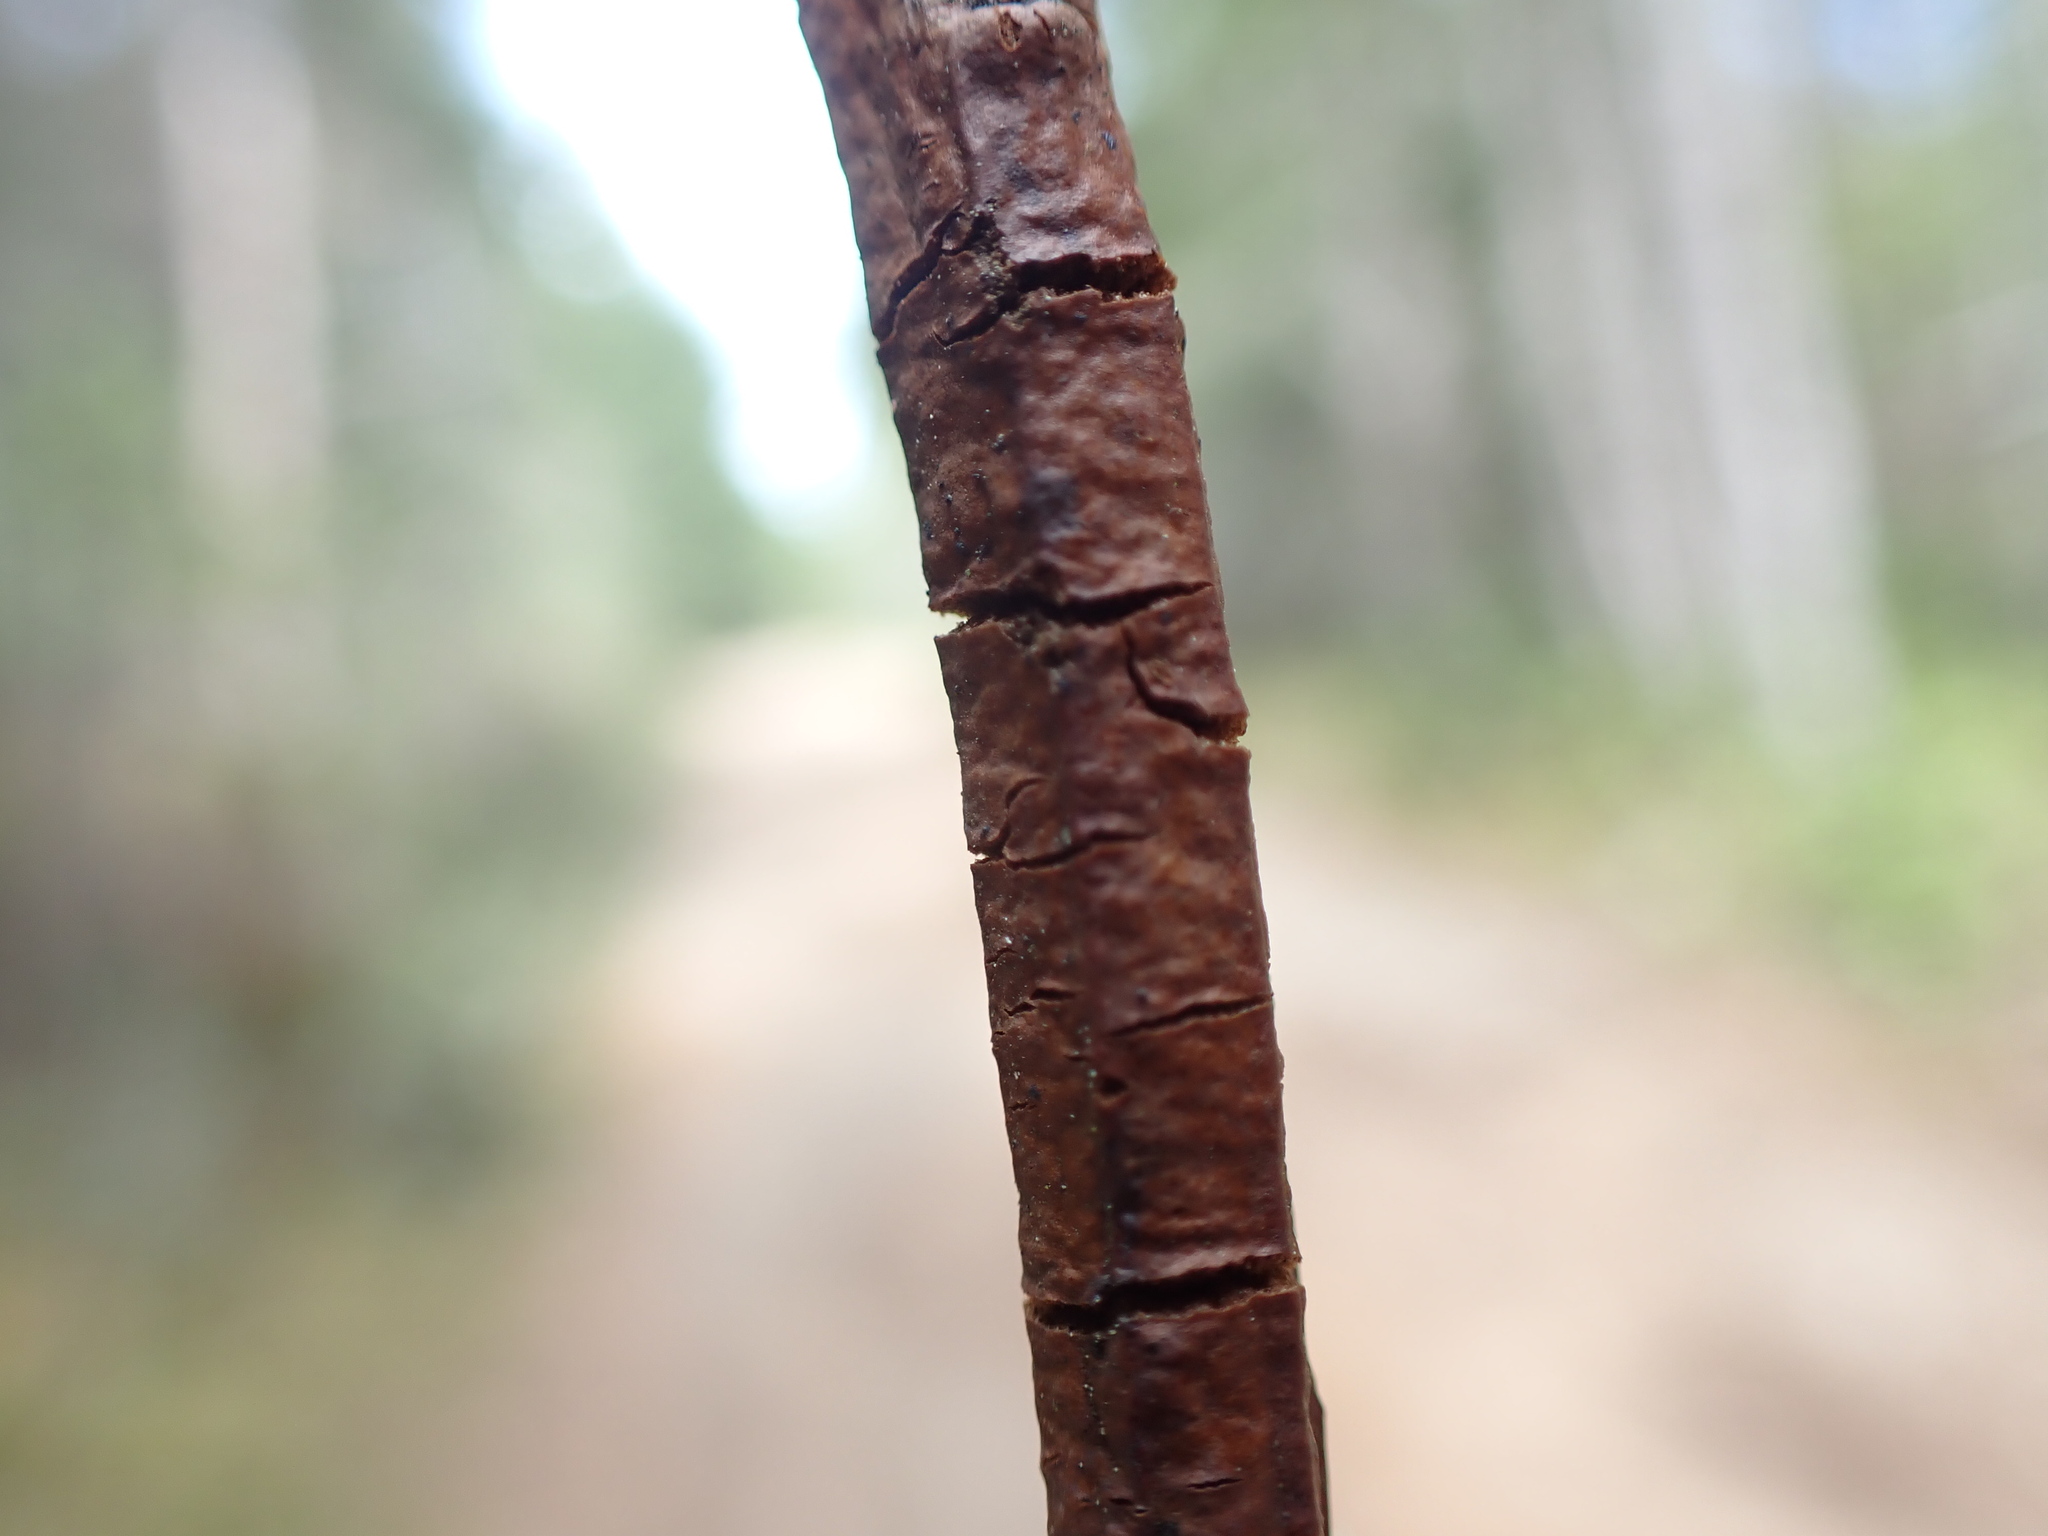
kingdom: Fungi
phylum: Basidiomycota
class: Pucciniomycetes
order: Pucciniales
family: Pucciniastraceae
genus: Calyptospora
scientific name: Calyptospora
